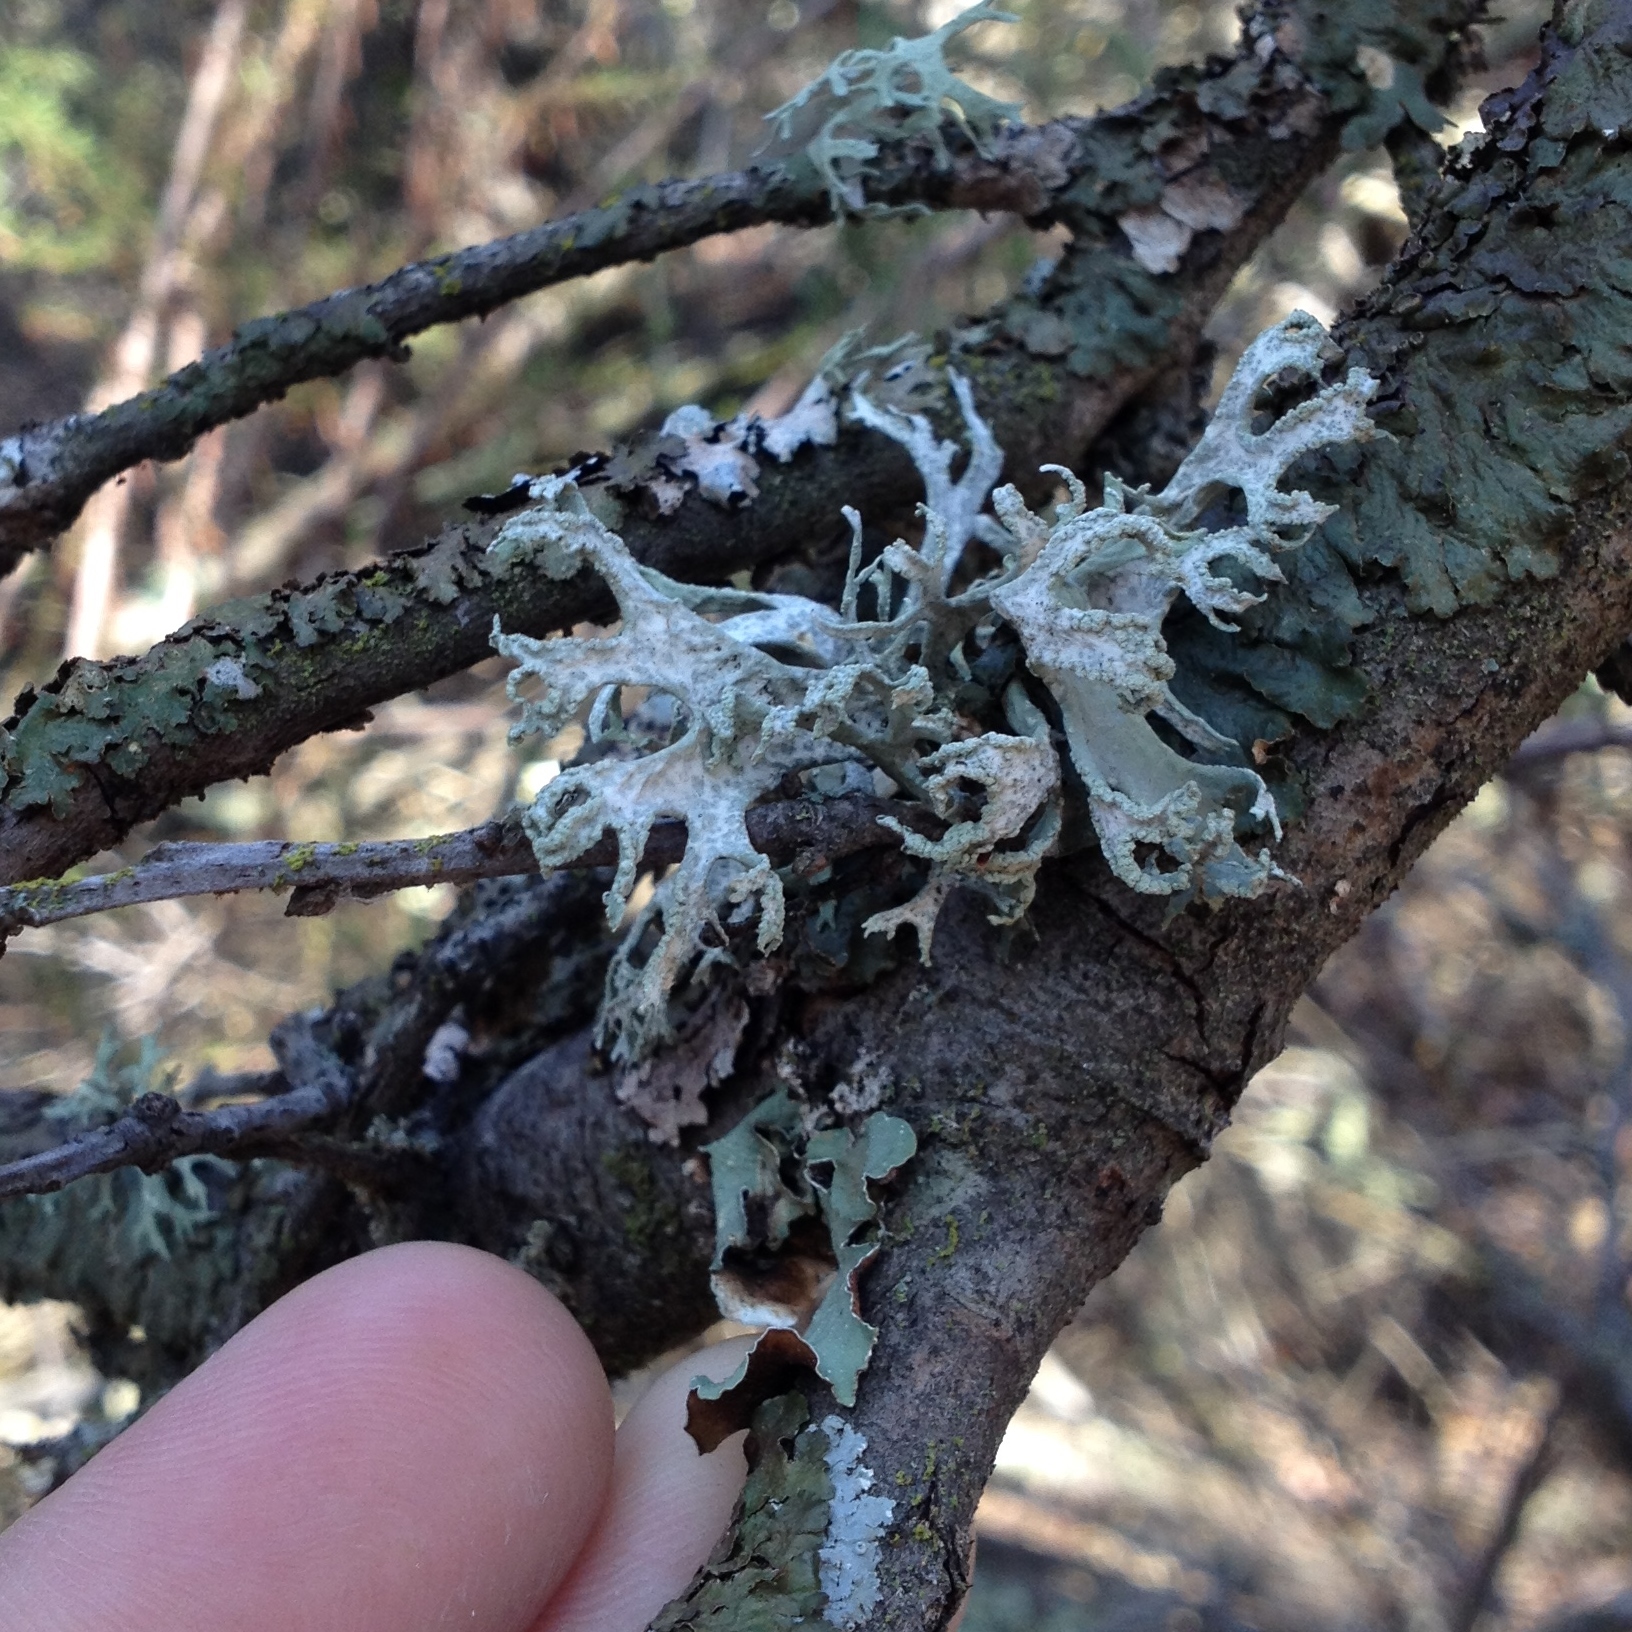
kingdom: Fungi
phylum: Ascomycota
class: Lecanoromycetes
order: Lecanorales
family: Parmeliaceae
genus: Evernia
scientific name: Evernia prunastri
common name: Oak moss
